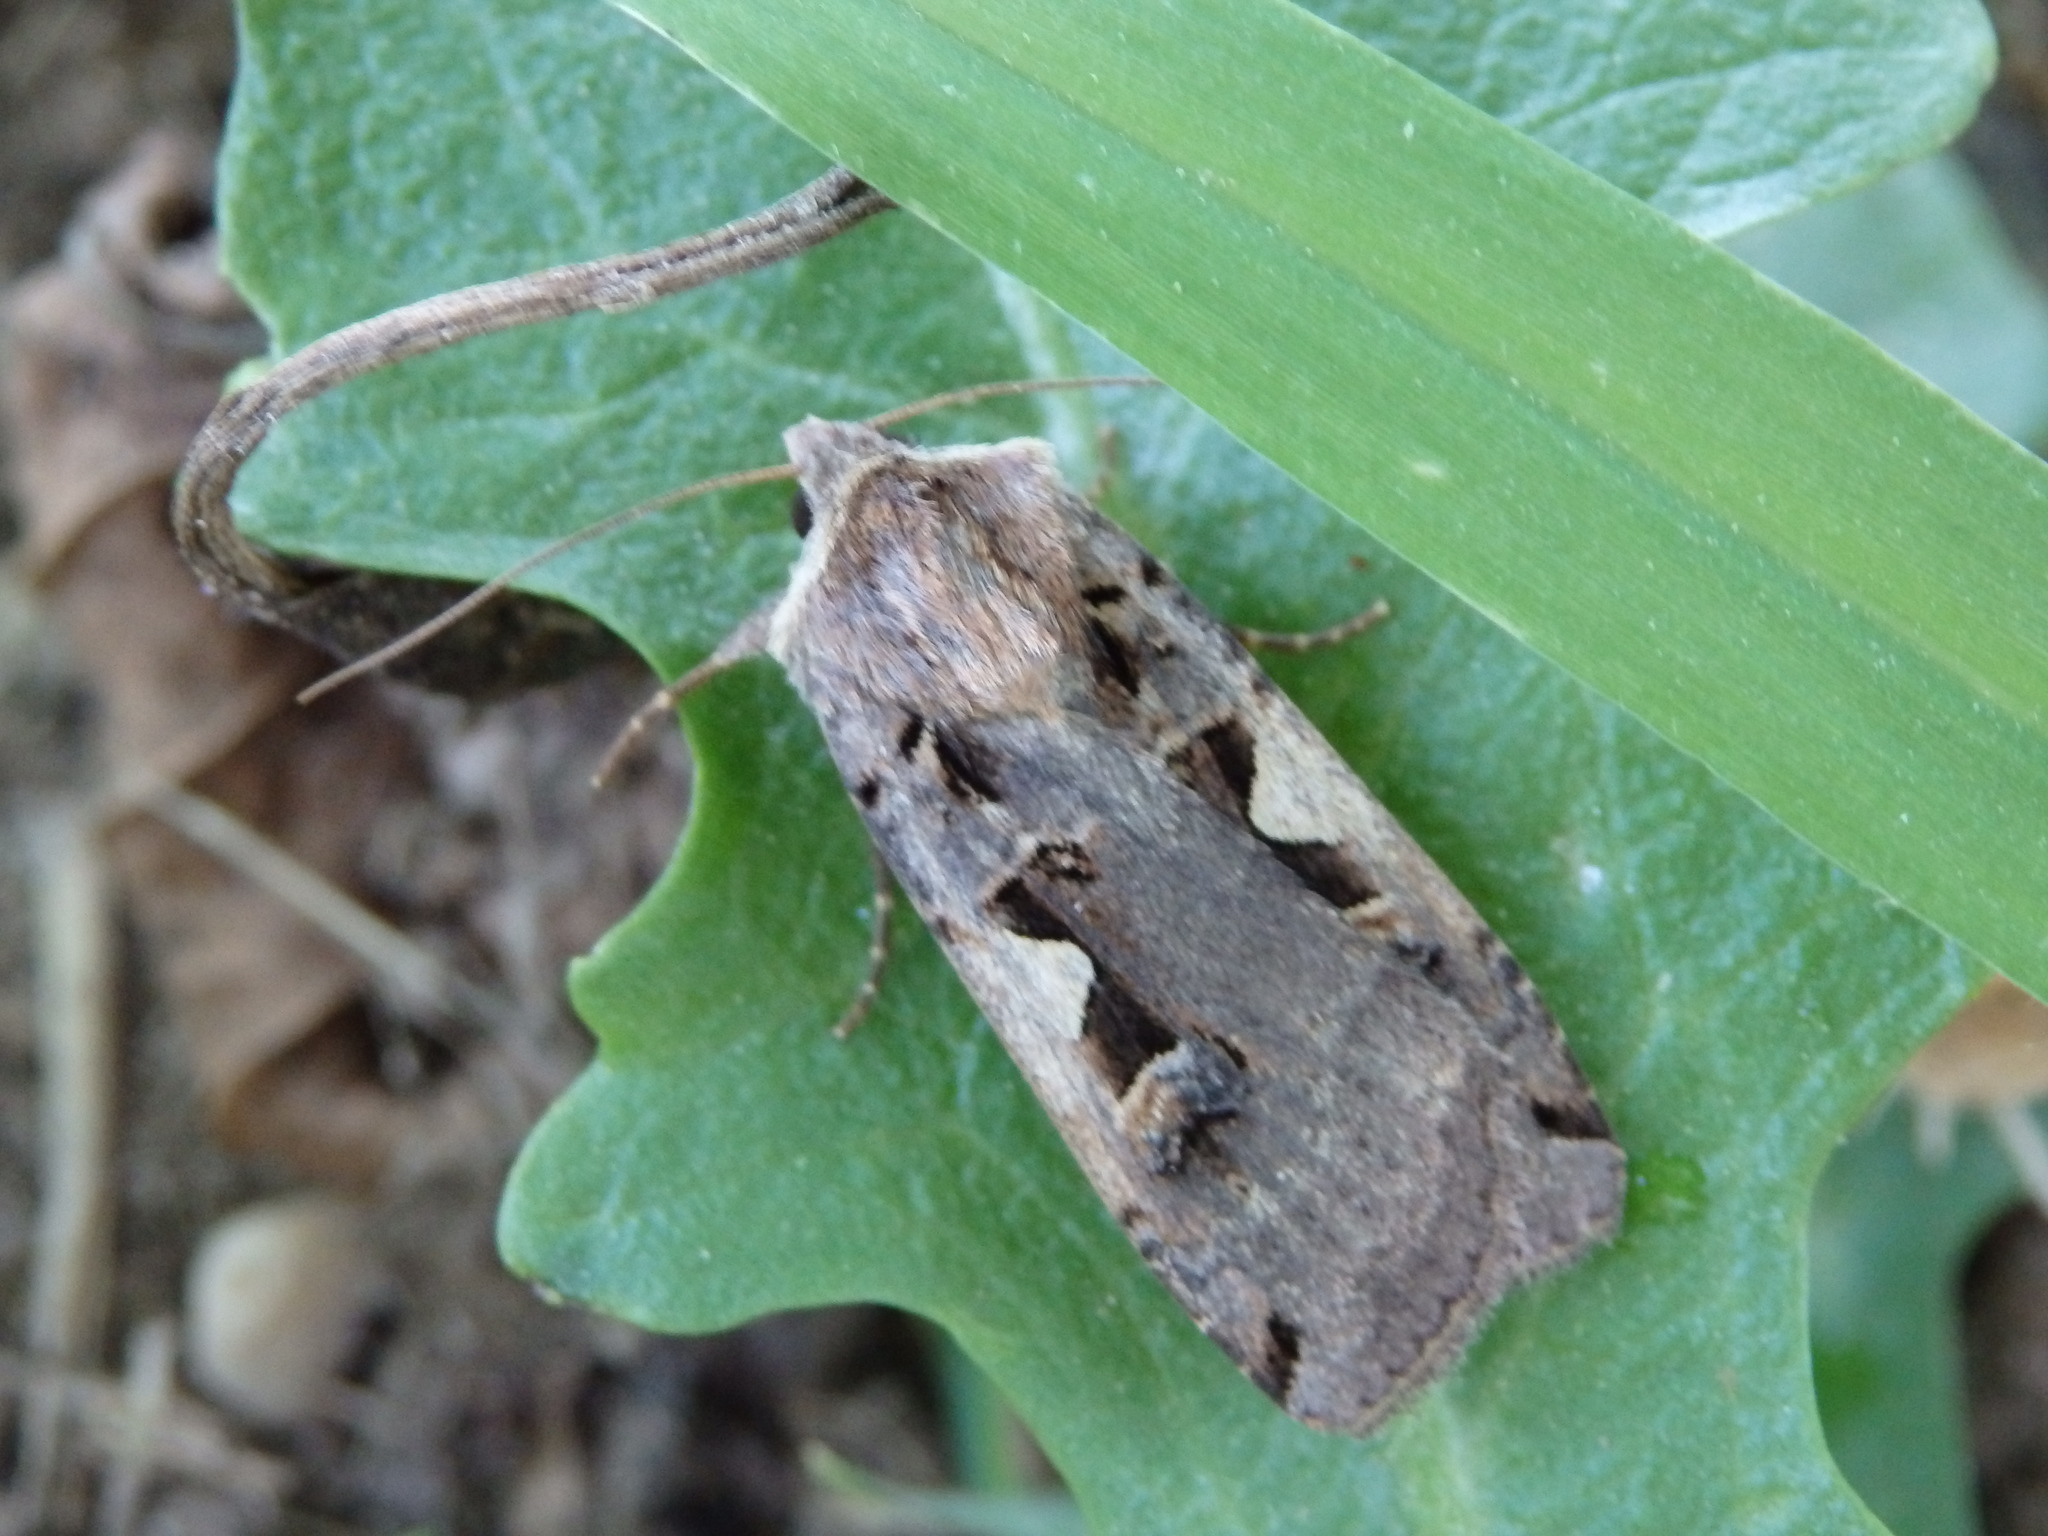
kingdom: Animalia
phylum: Arthropoda
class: Insecta
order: Lepidoptera
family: Noctuidae
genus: Xestia
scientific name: Xestia c-nigrum
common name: Setaceous hebrew character
